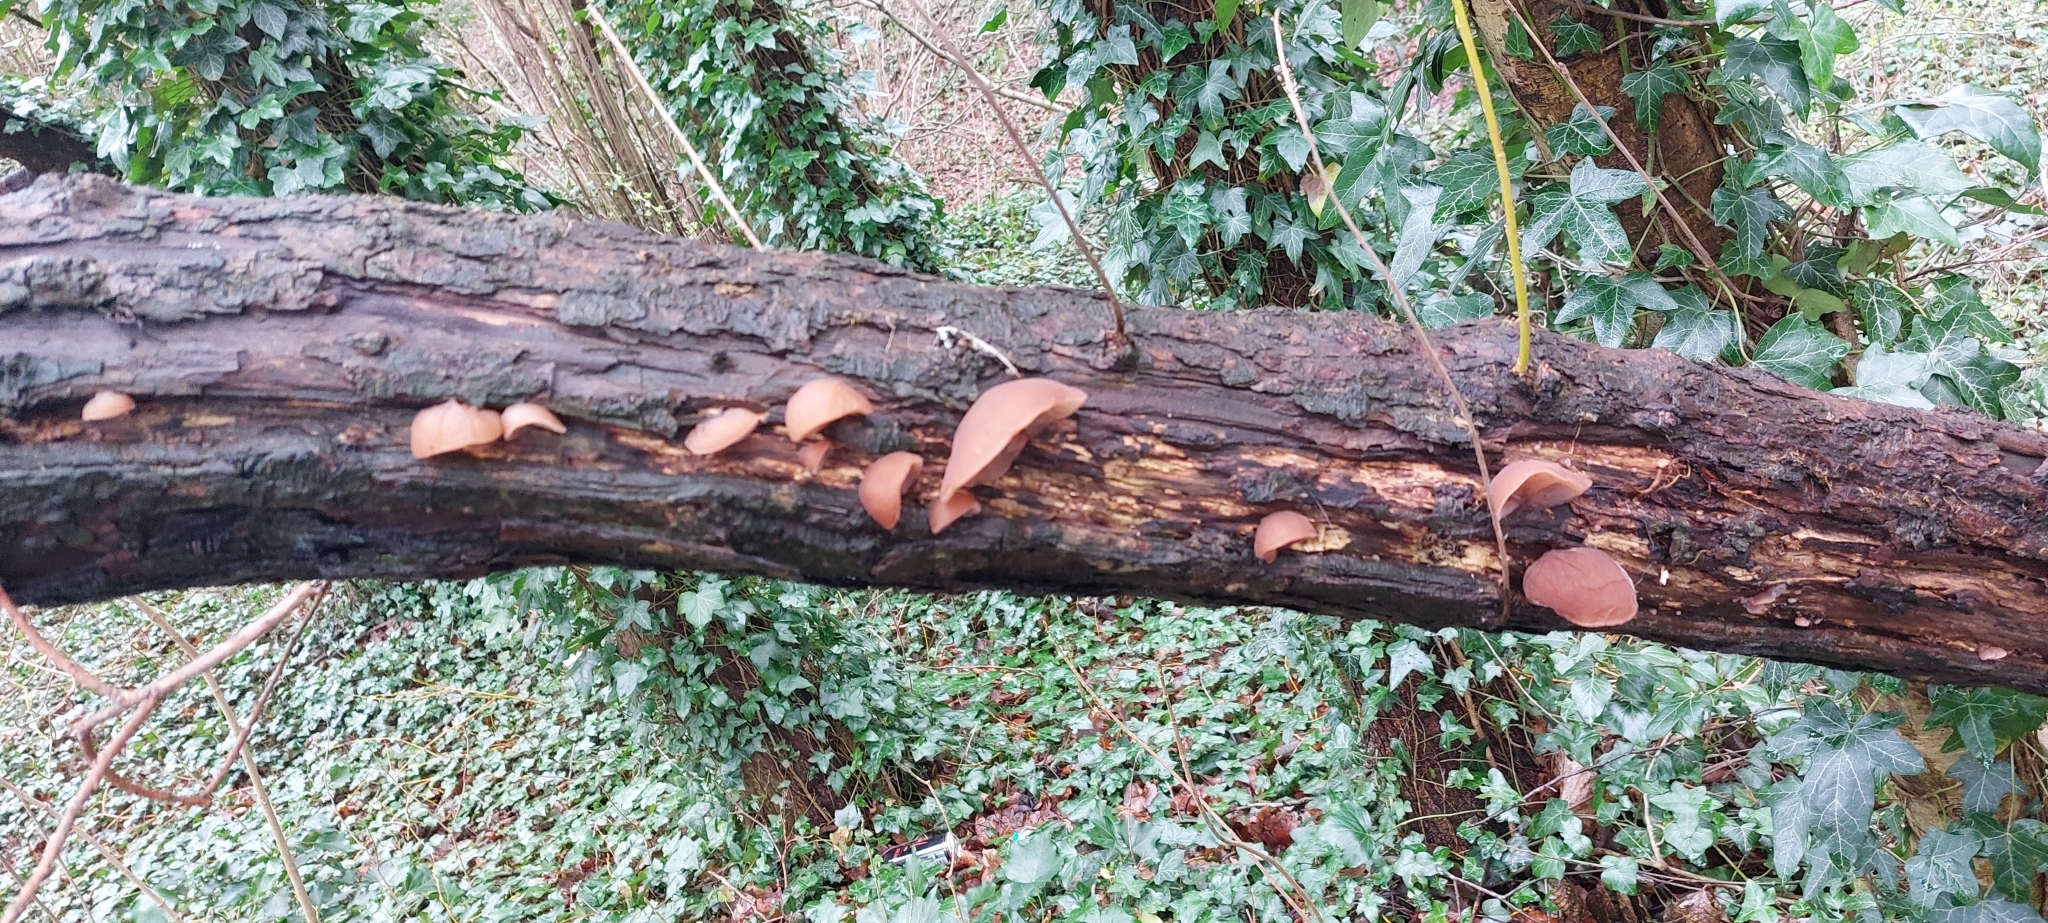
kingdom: Fungi
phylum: Basidiomycota
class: Agaricomycetes
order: Auriculariales
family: Auriculariaceae
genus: Auricularia
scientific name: Auricularia auricula-judae
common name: Jelly ear
